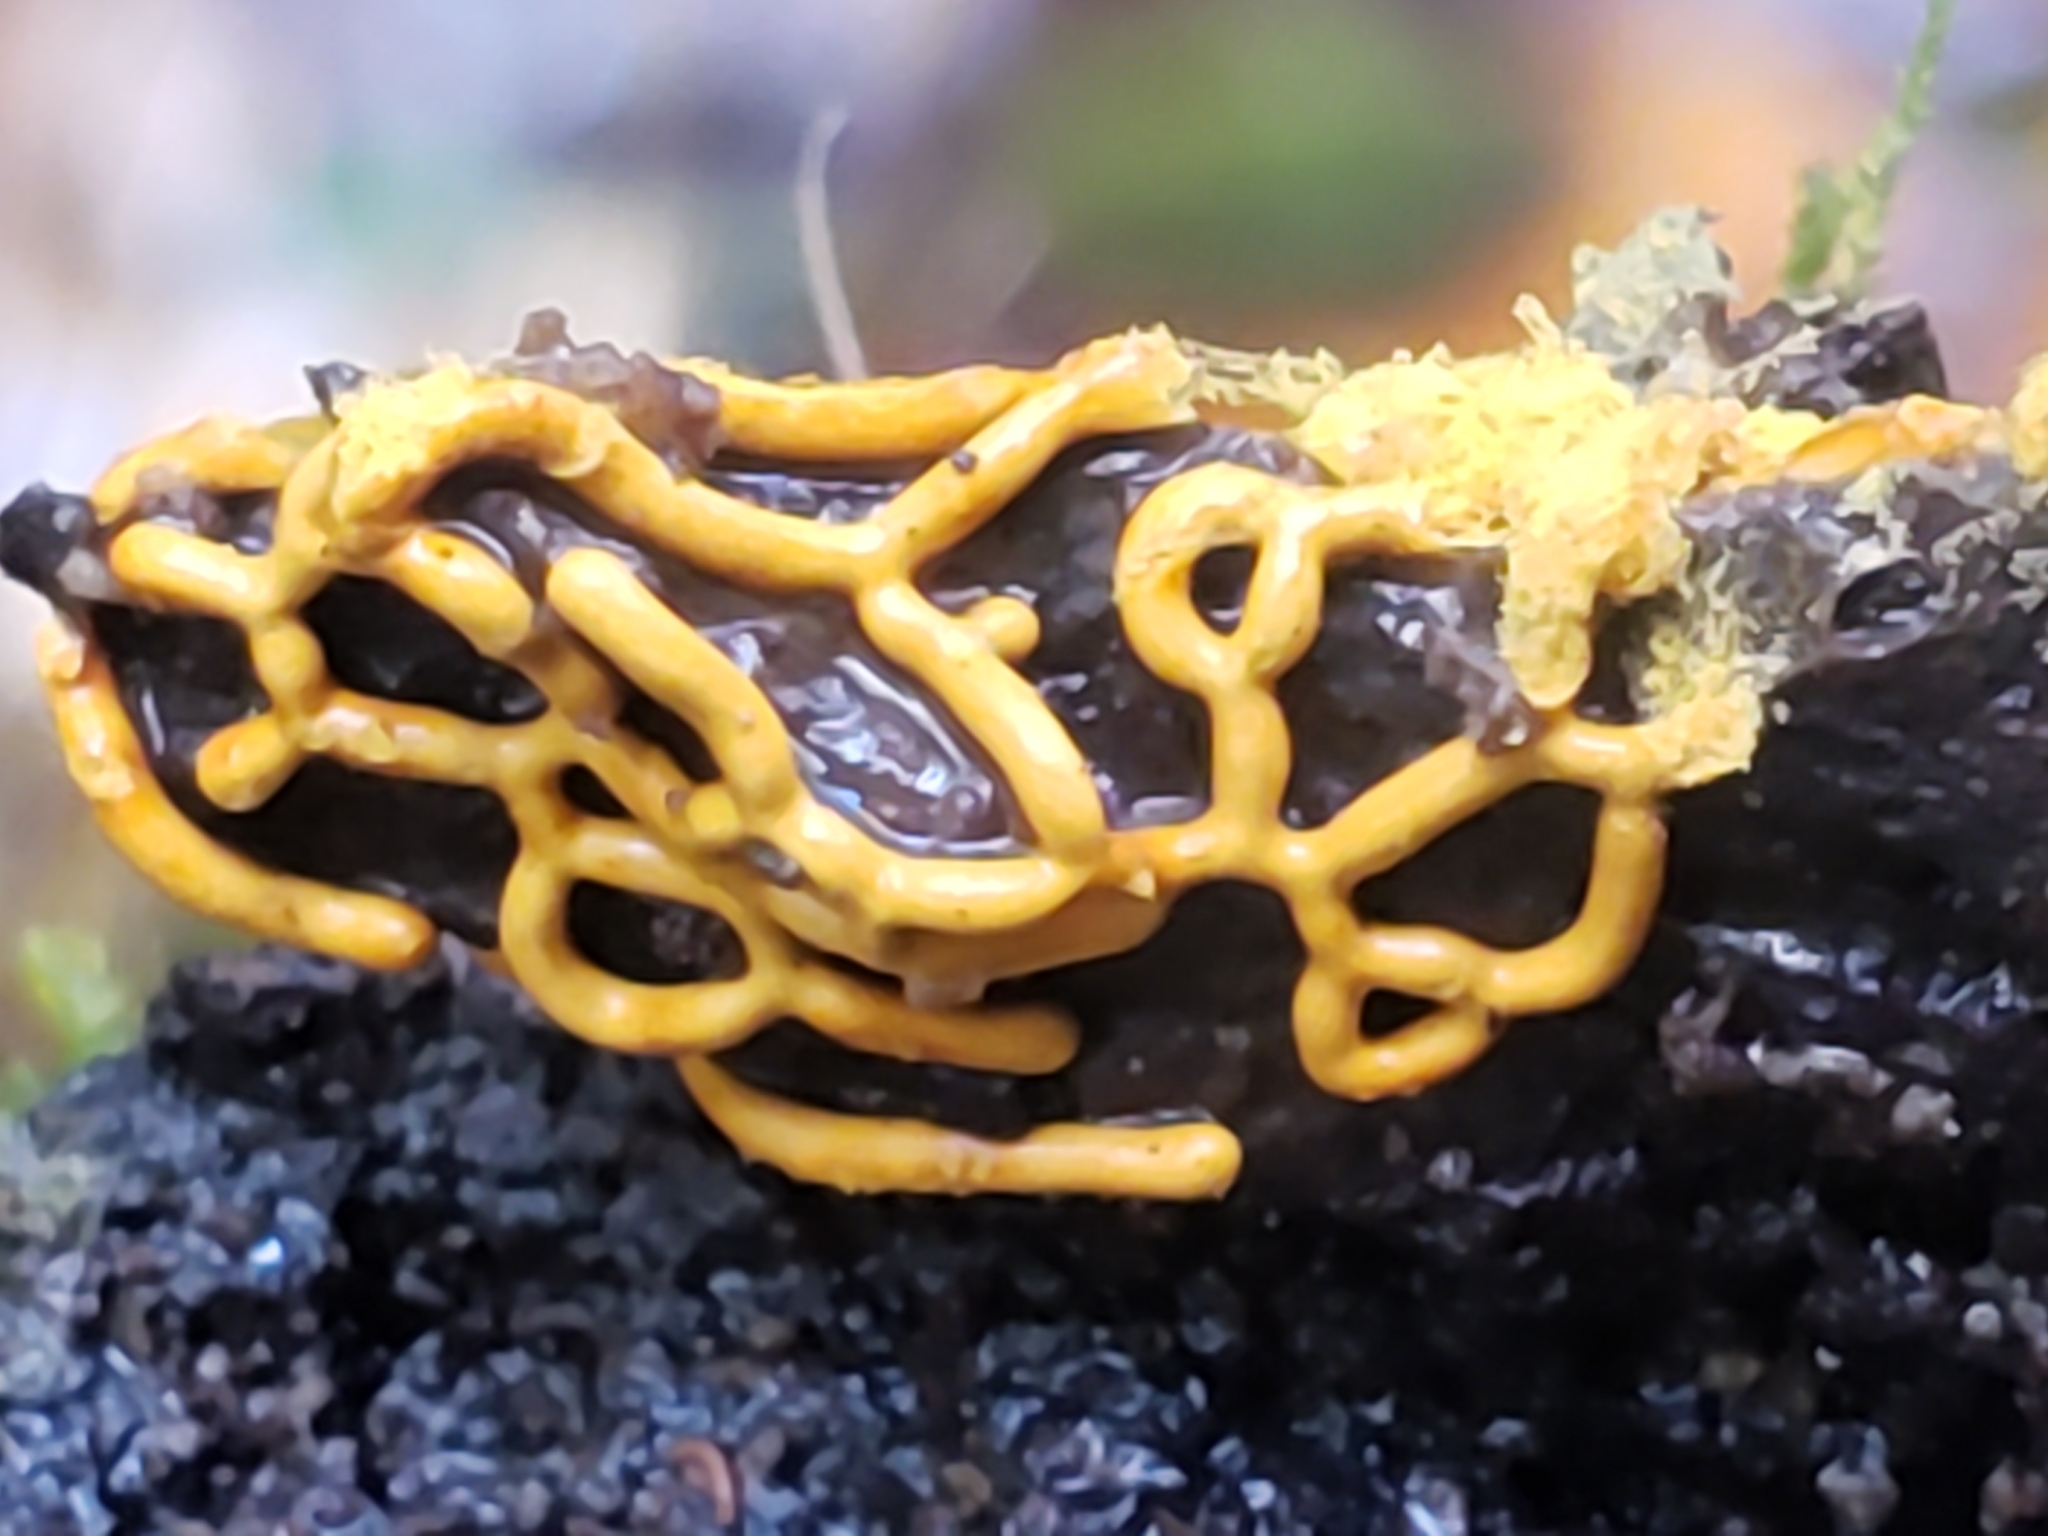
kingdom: Protozoa
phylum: Mycetozoa
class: Myxomycetes
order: Trichiales
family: Arcyriaceae
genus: Hemitrichia
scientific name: Hemitrichia serpula
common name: Pretzel slime mold
